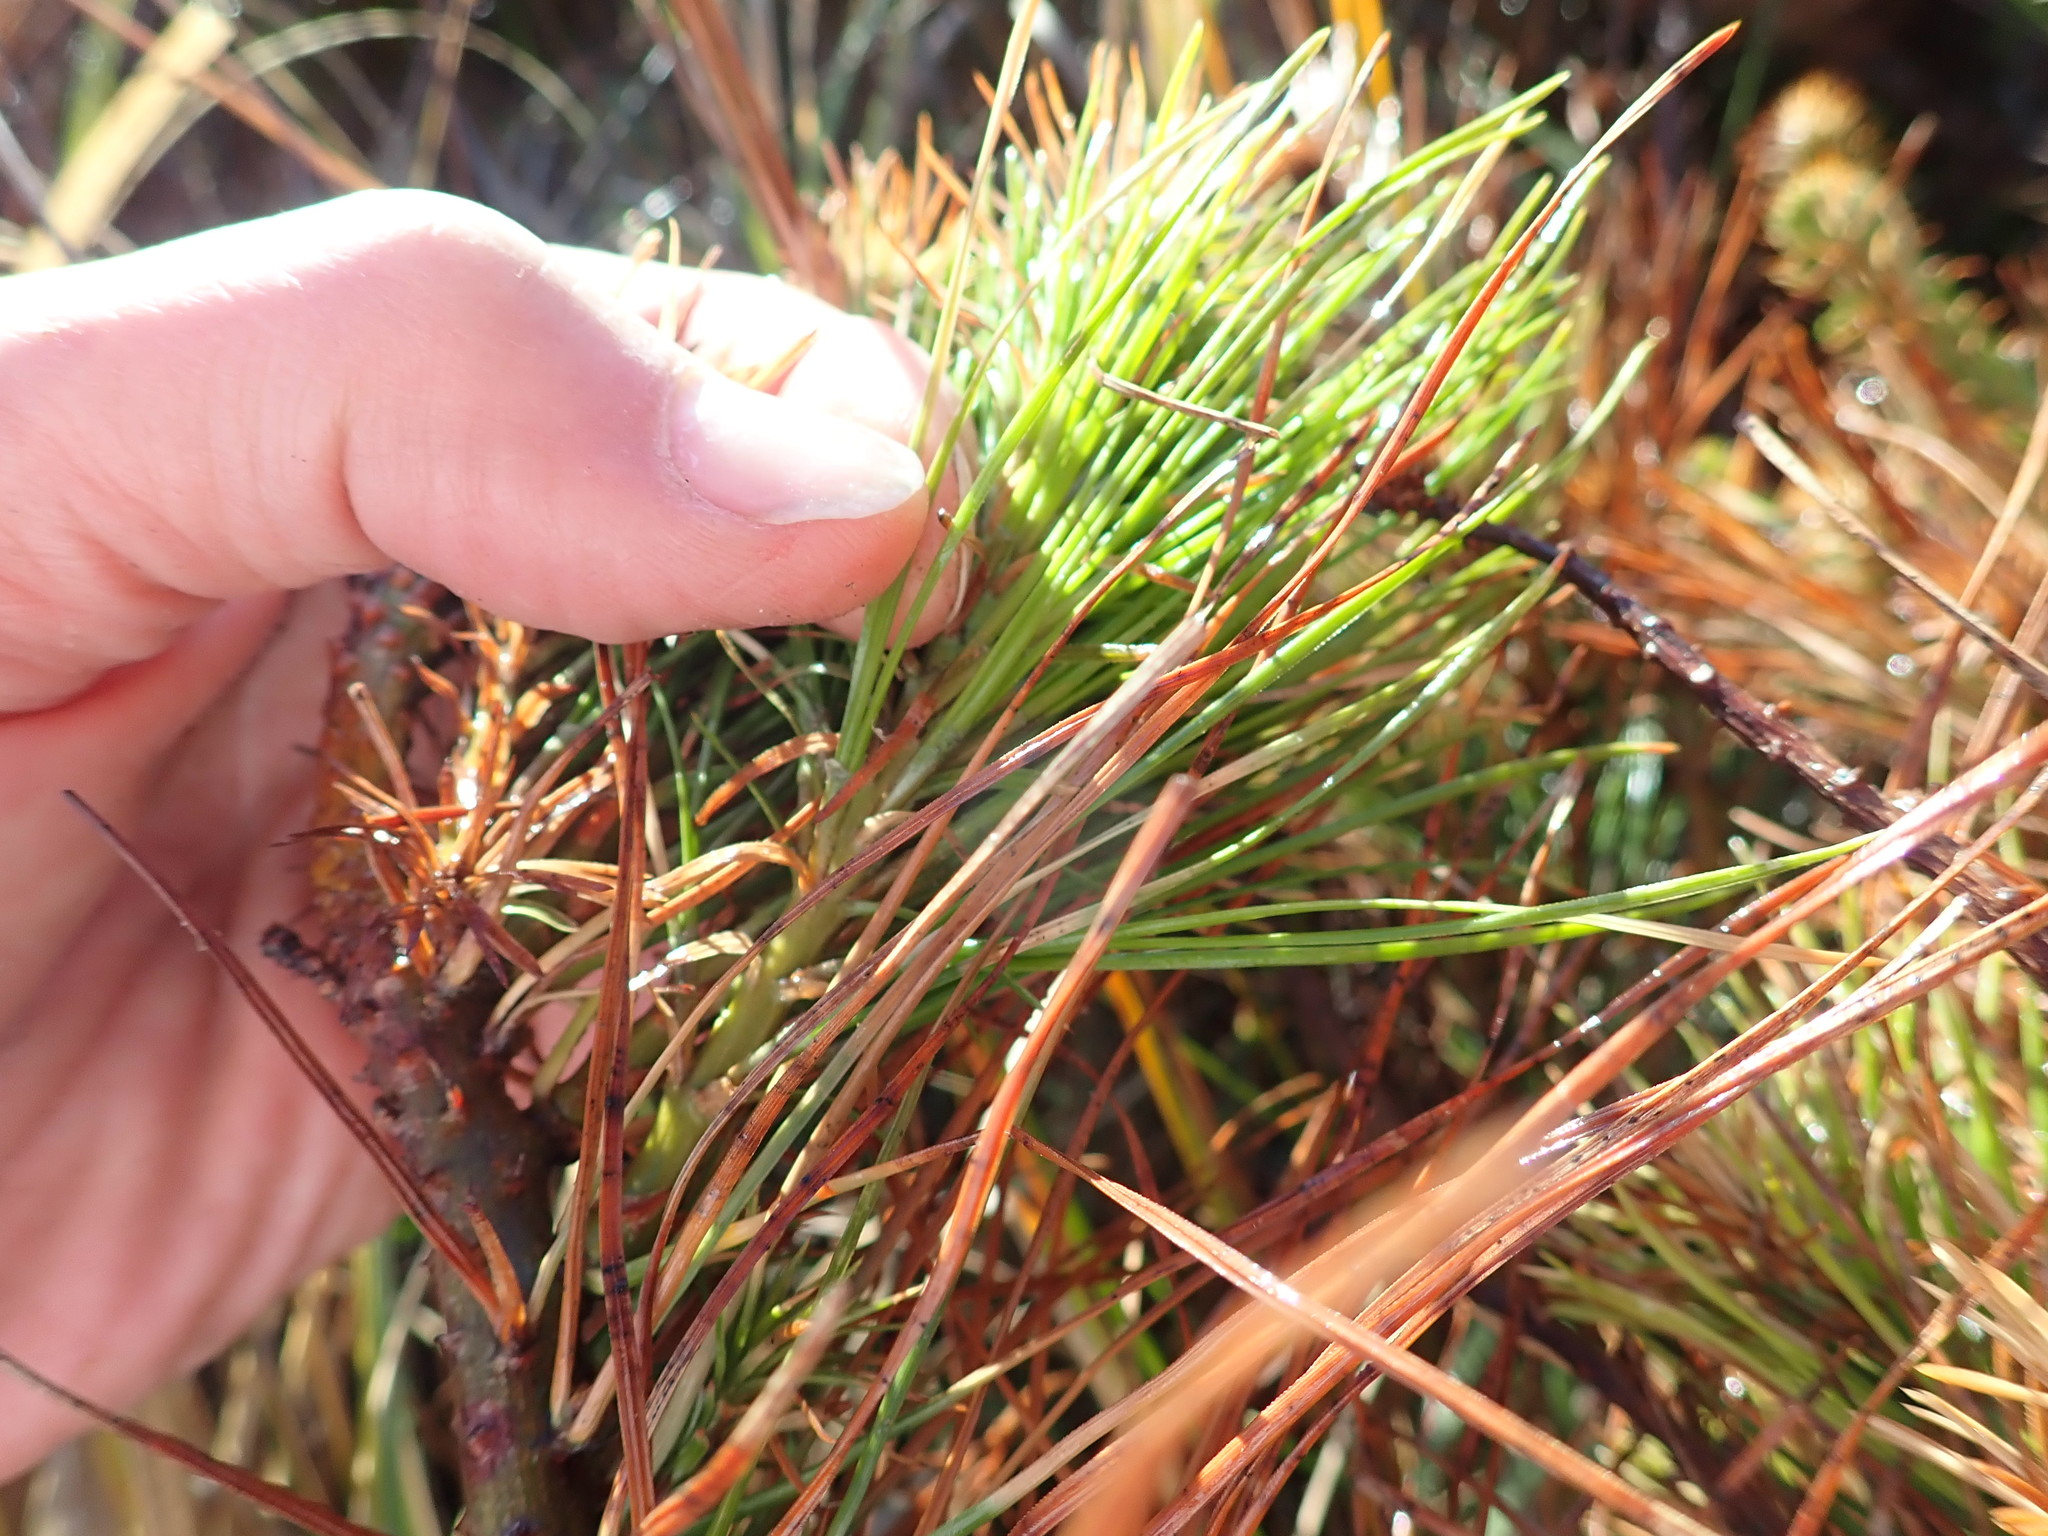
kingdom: Plantae
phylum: Tracheophyta
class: Pinopsida
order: Pinales
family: Pinaceae
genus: Pinus
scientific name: Pinus radiata
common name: Monterey pine
